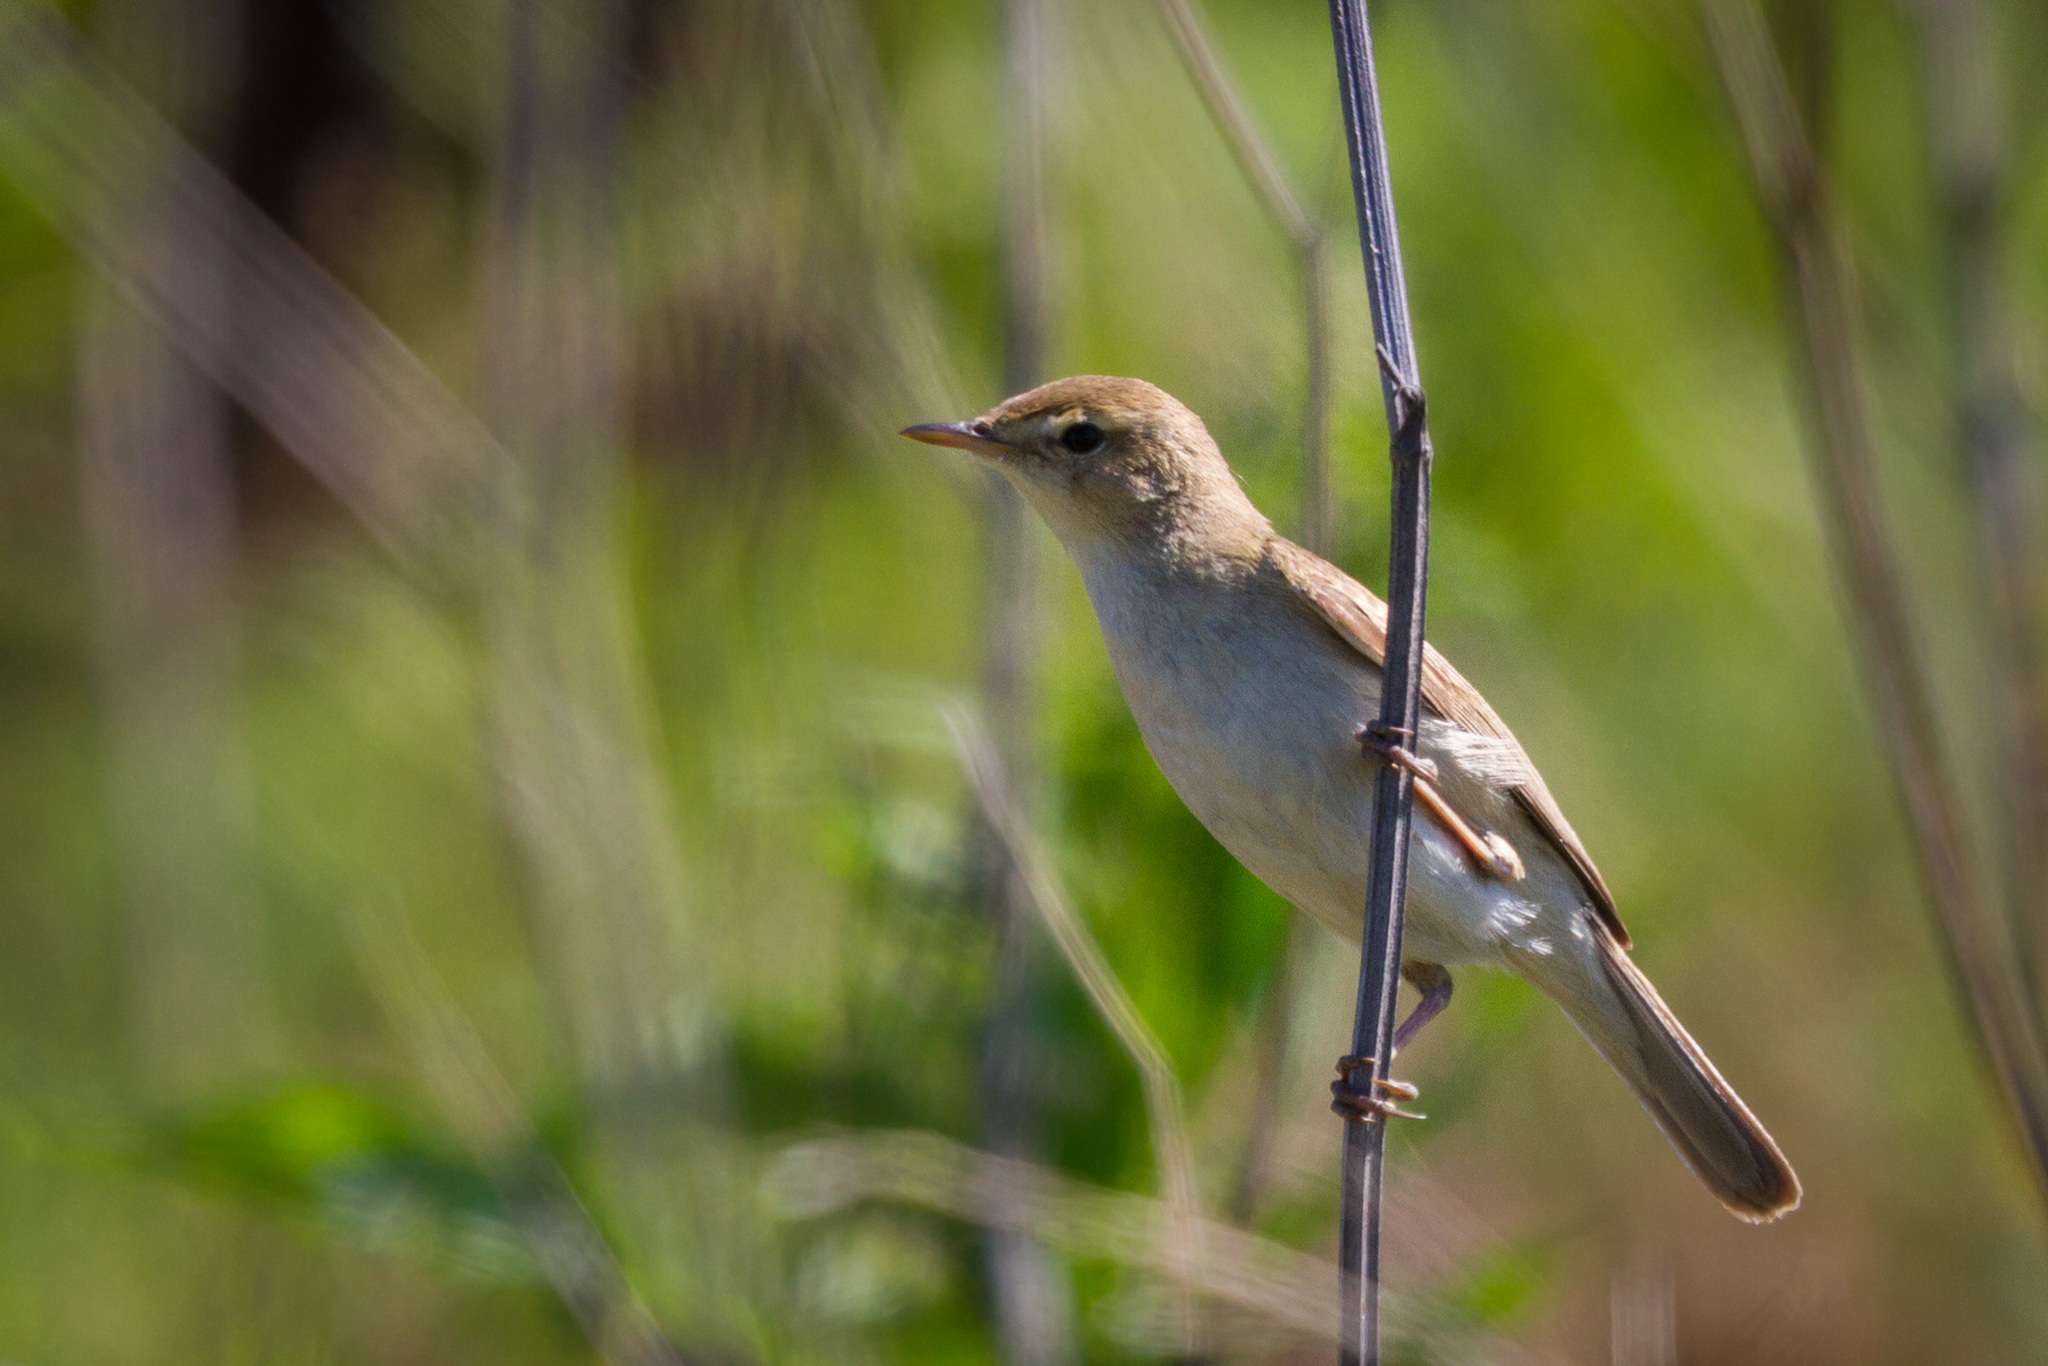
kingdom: Animalia
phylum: Chordata
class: Aves
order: Passeriformes
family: Acrocephalidae
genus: Iduna
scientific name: Iduna caligata
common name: Booted warbler
